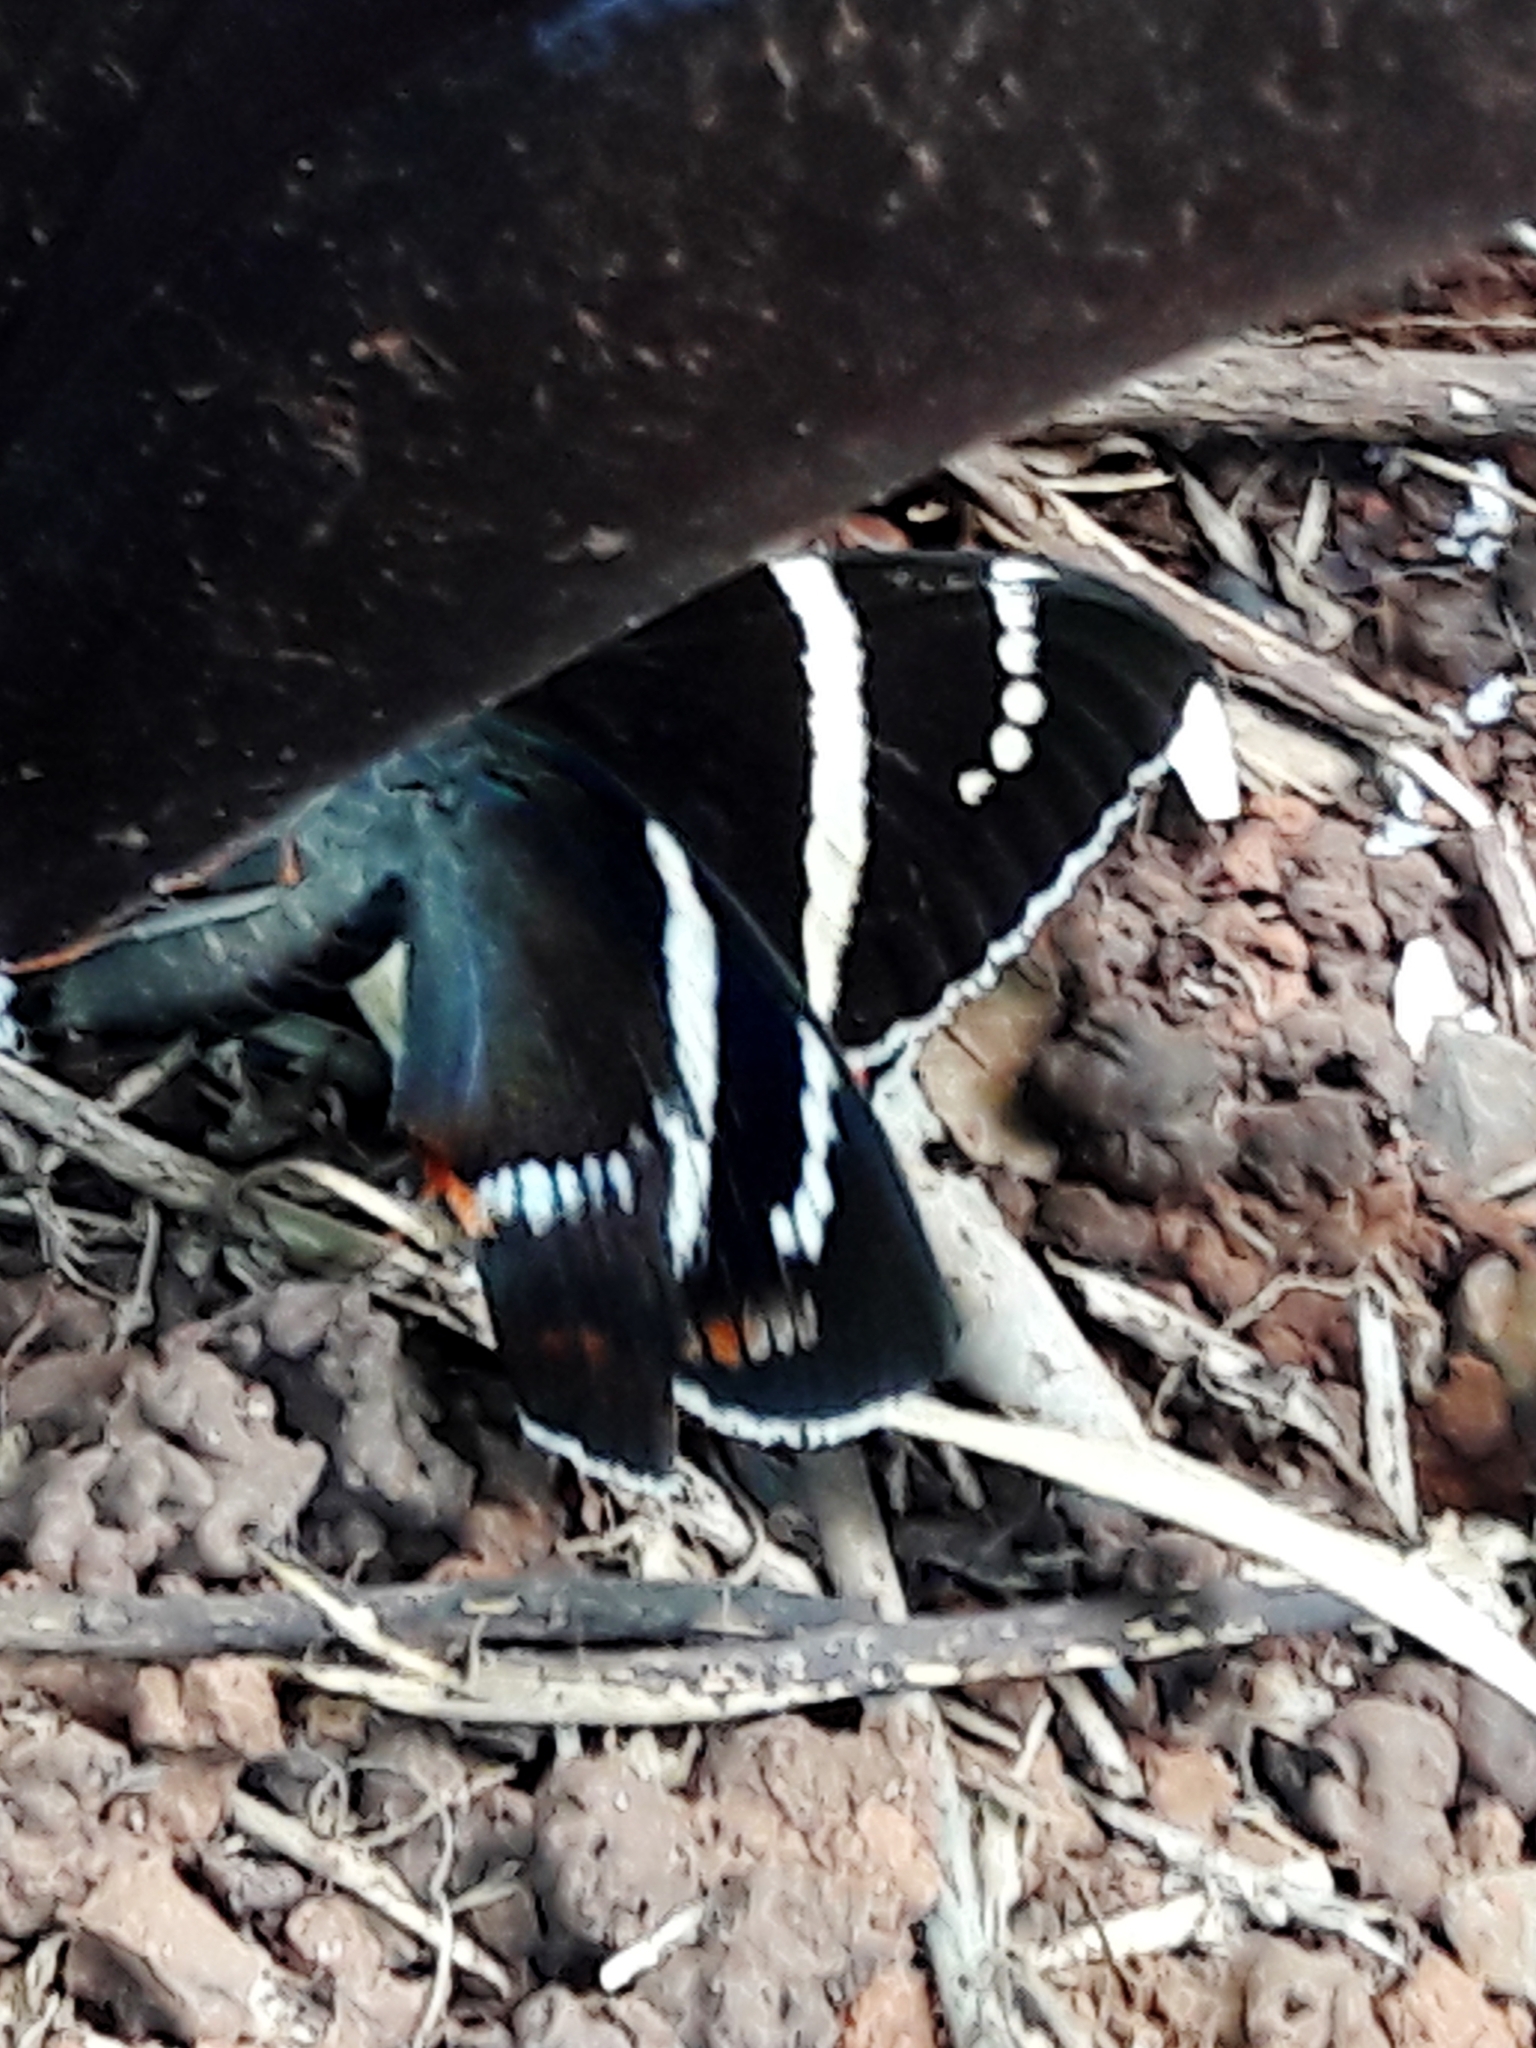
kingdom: Animalia
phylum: Arthropoda
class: Insecta
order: Lepidoptera
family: Castniidae
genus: Castnia
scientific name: Castnia licus
